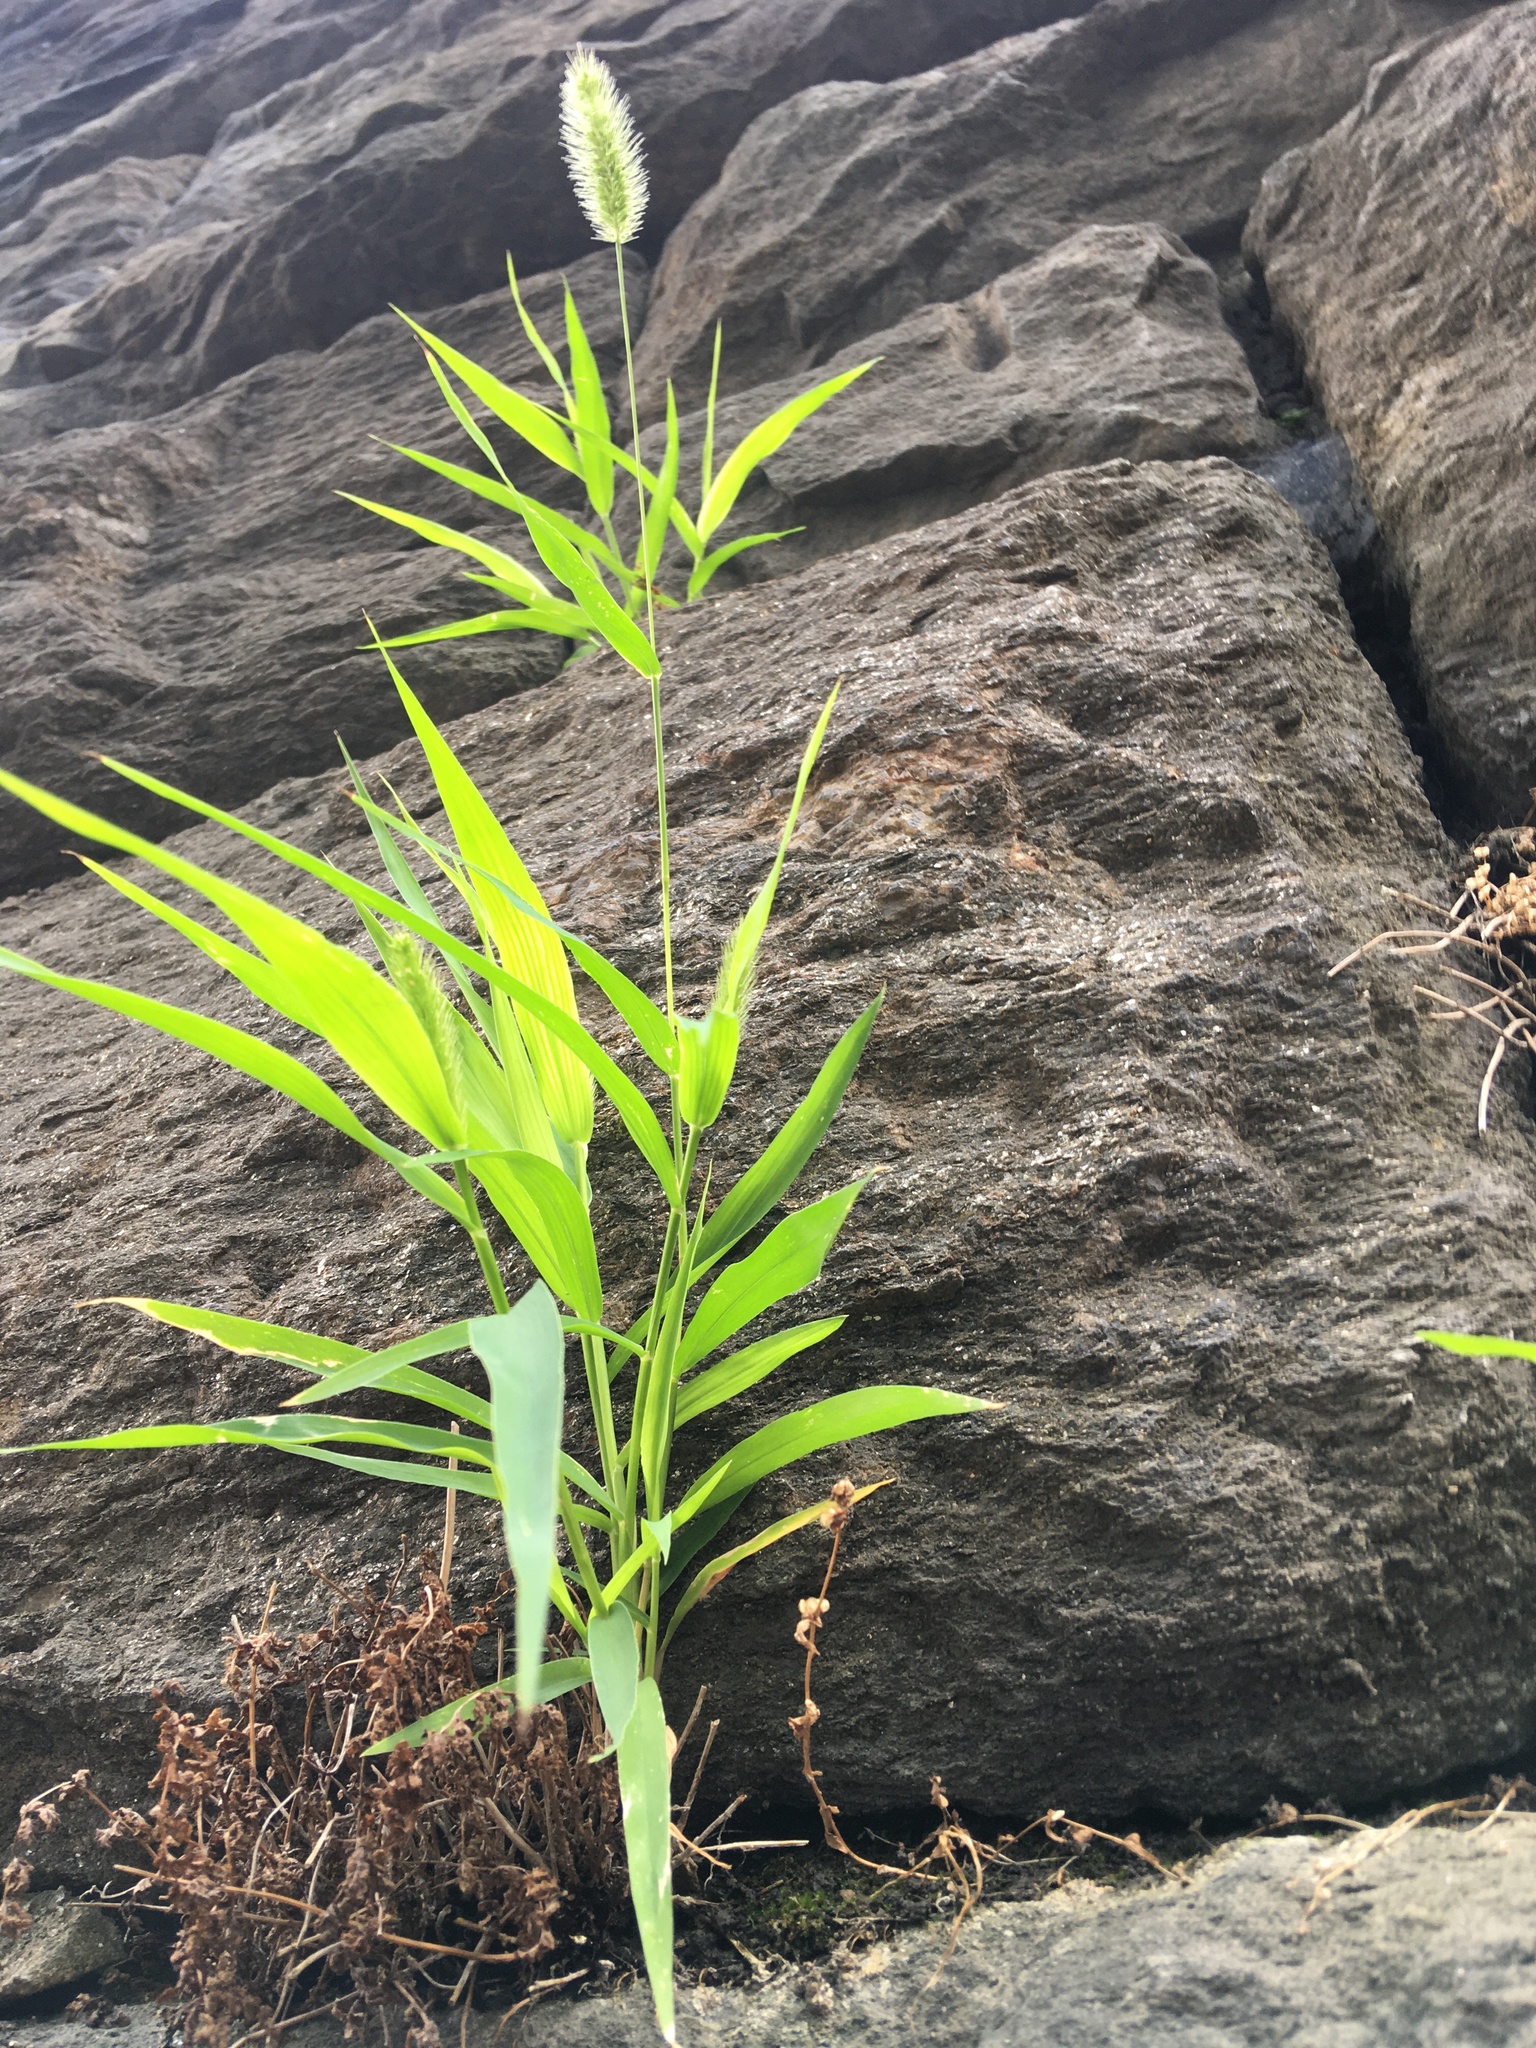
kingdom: Plantae
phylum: Tracheophyta
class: Liliopsida
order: Poales
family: Poaceae
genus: Setaria
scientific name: Setaria viridis
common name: Green bristlegrass
